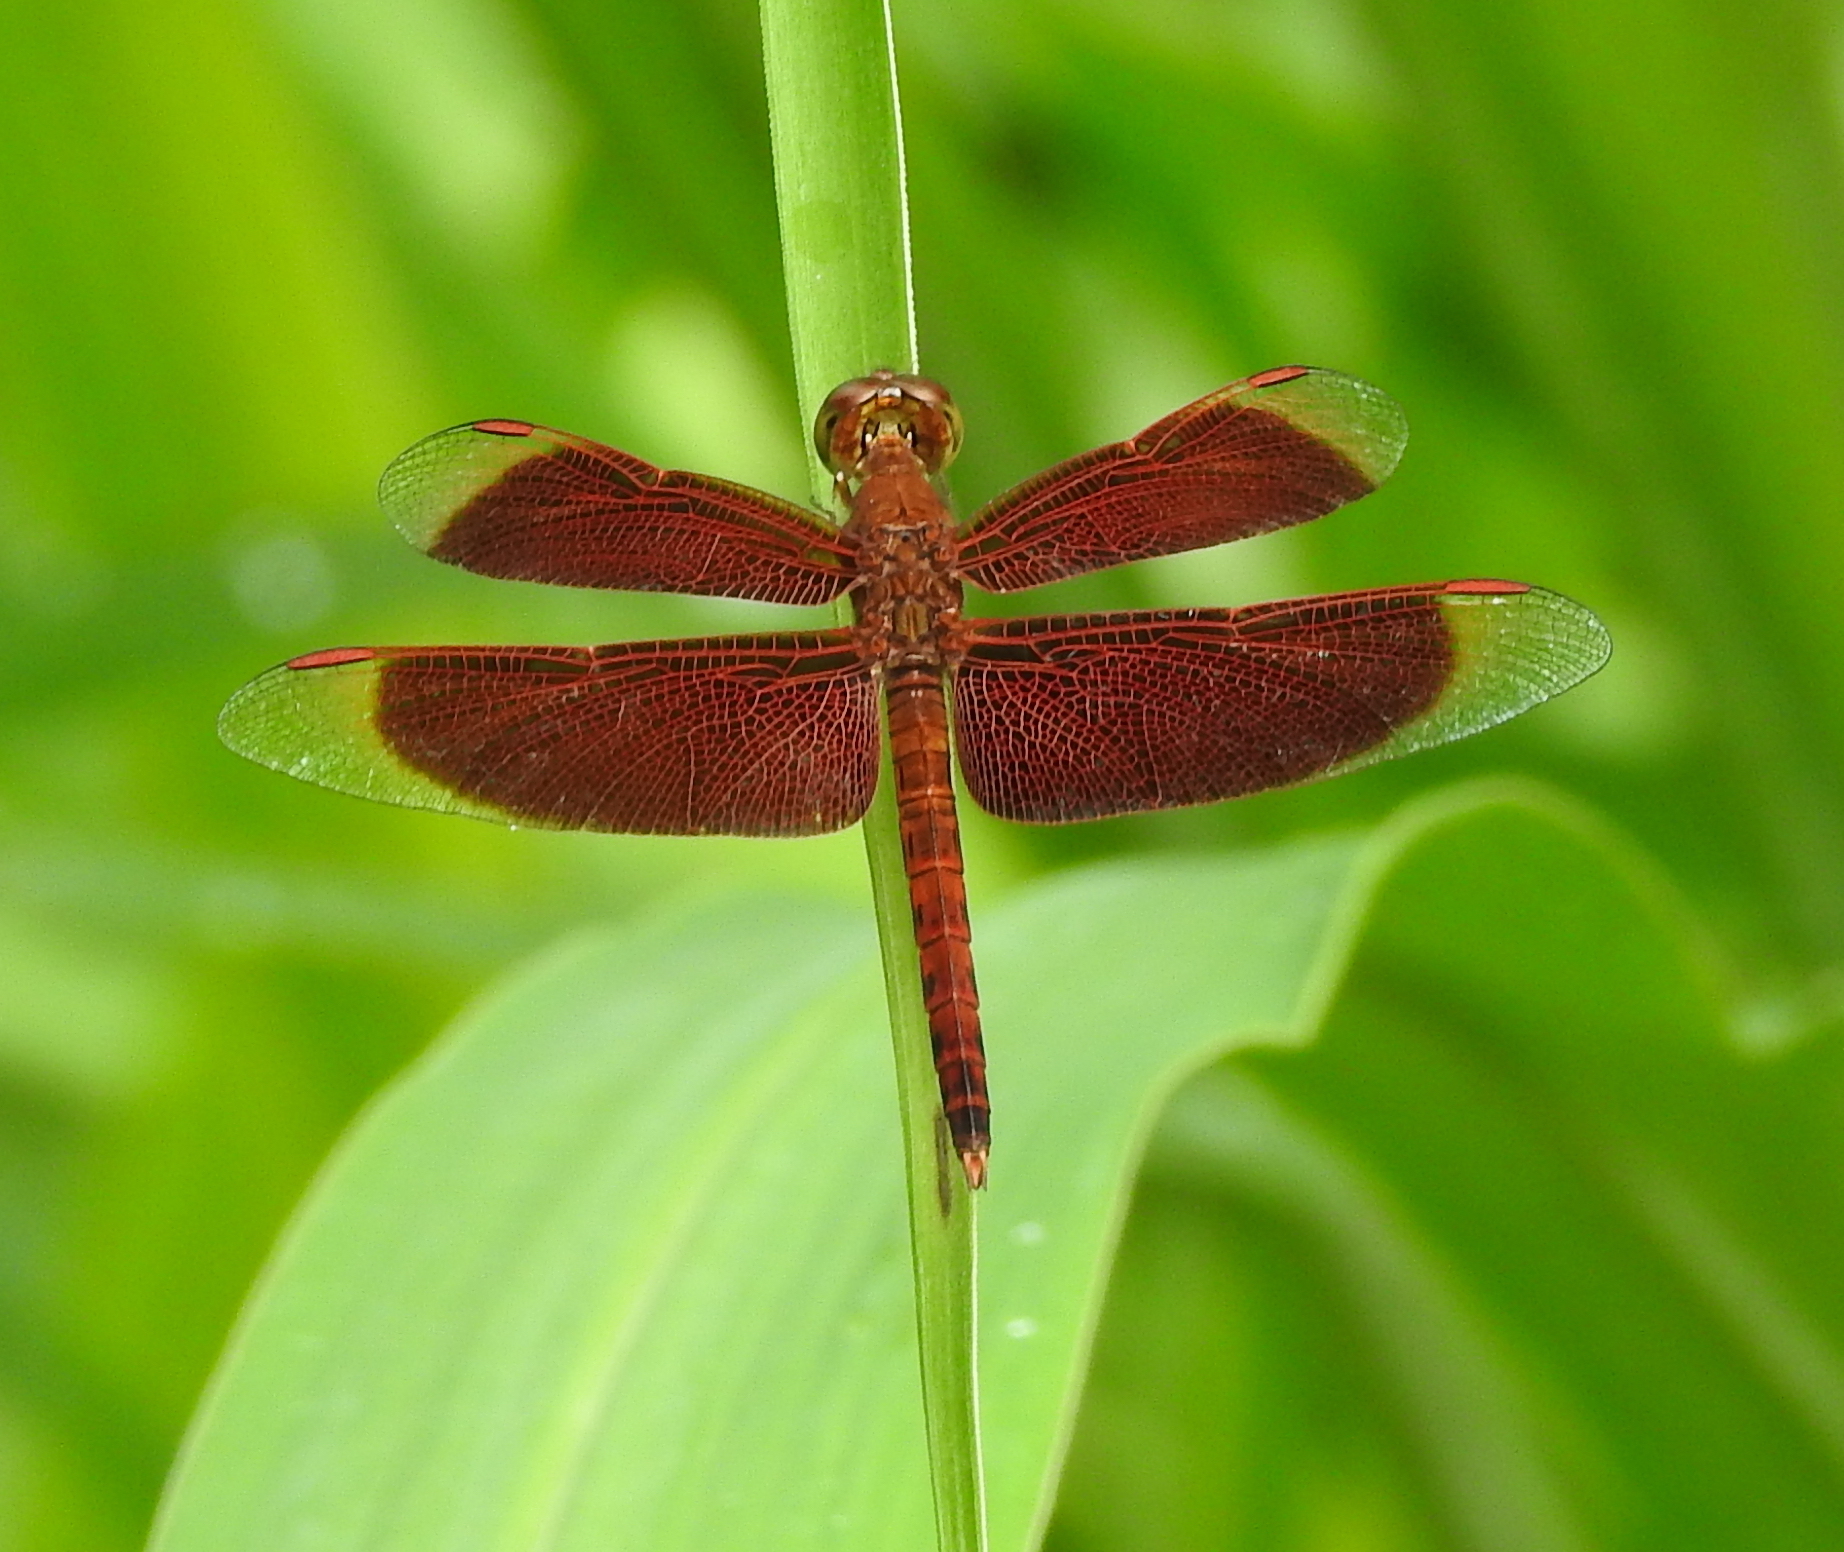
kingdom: Animalia
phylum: Arthropoda
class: Insecta
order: Odonata
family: Libellulidae
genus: Neurothemis
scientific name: Neurothemis fluctuans
